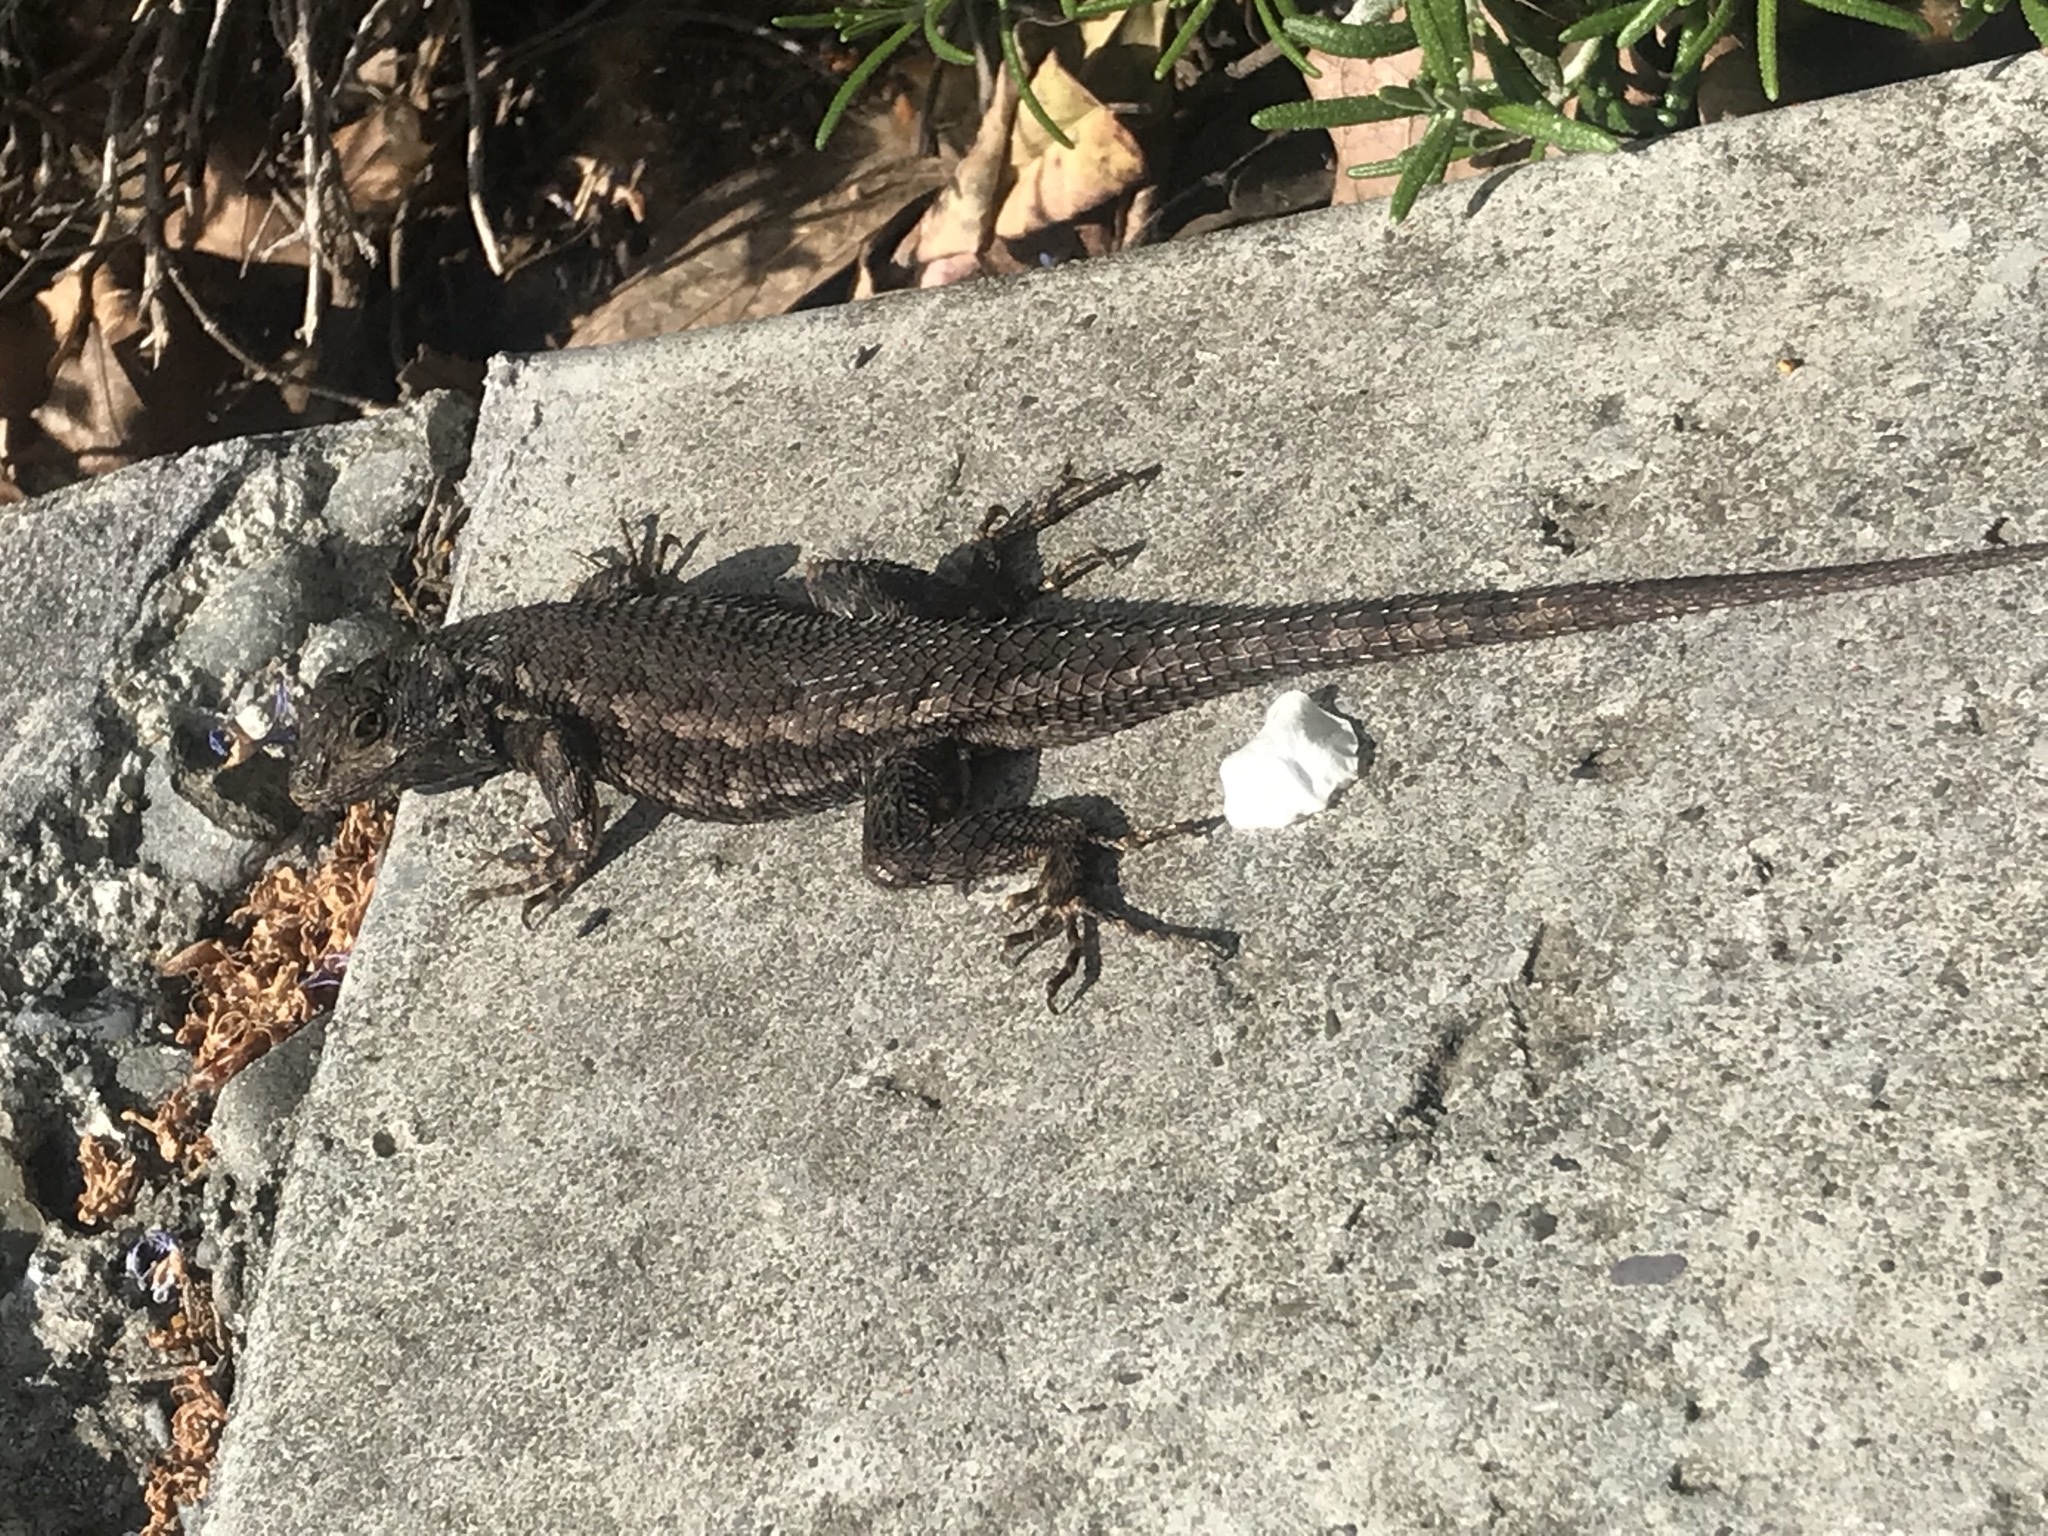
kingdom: Animalia
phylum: Chordata
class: Squamata
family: Phrynosomatidae
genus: Sceloporus
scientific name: Sceloporus occidentalis
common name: Western fence lizard
